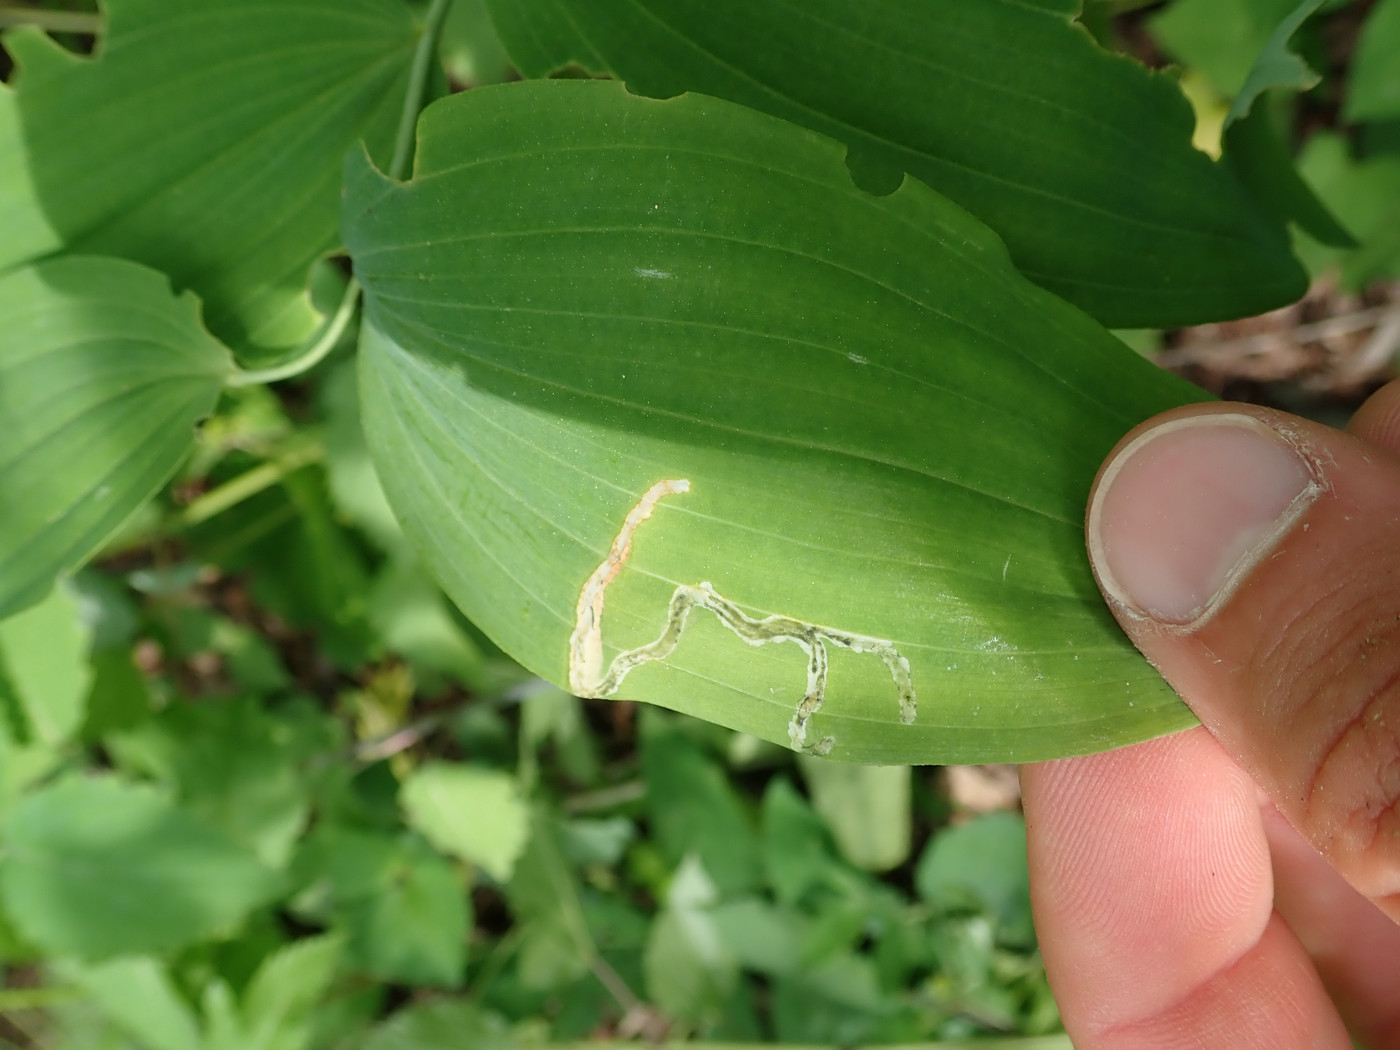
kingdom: Animalia
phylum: Arthropoda
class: Insecta
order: Diptera
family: Scathophagidae
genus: Leptopa
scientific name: Leptopa
